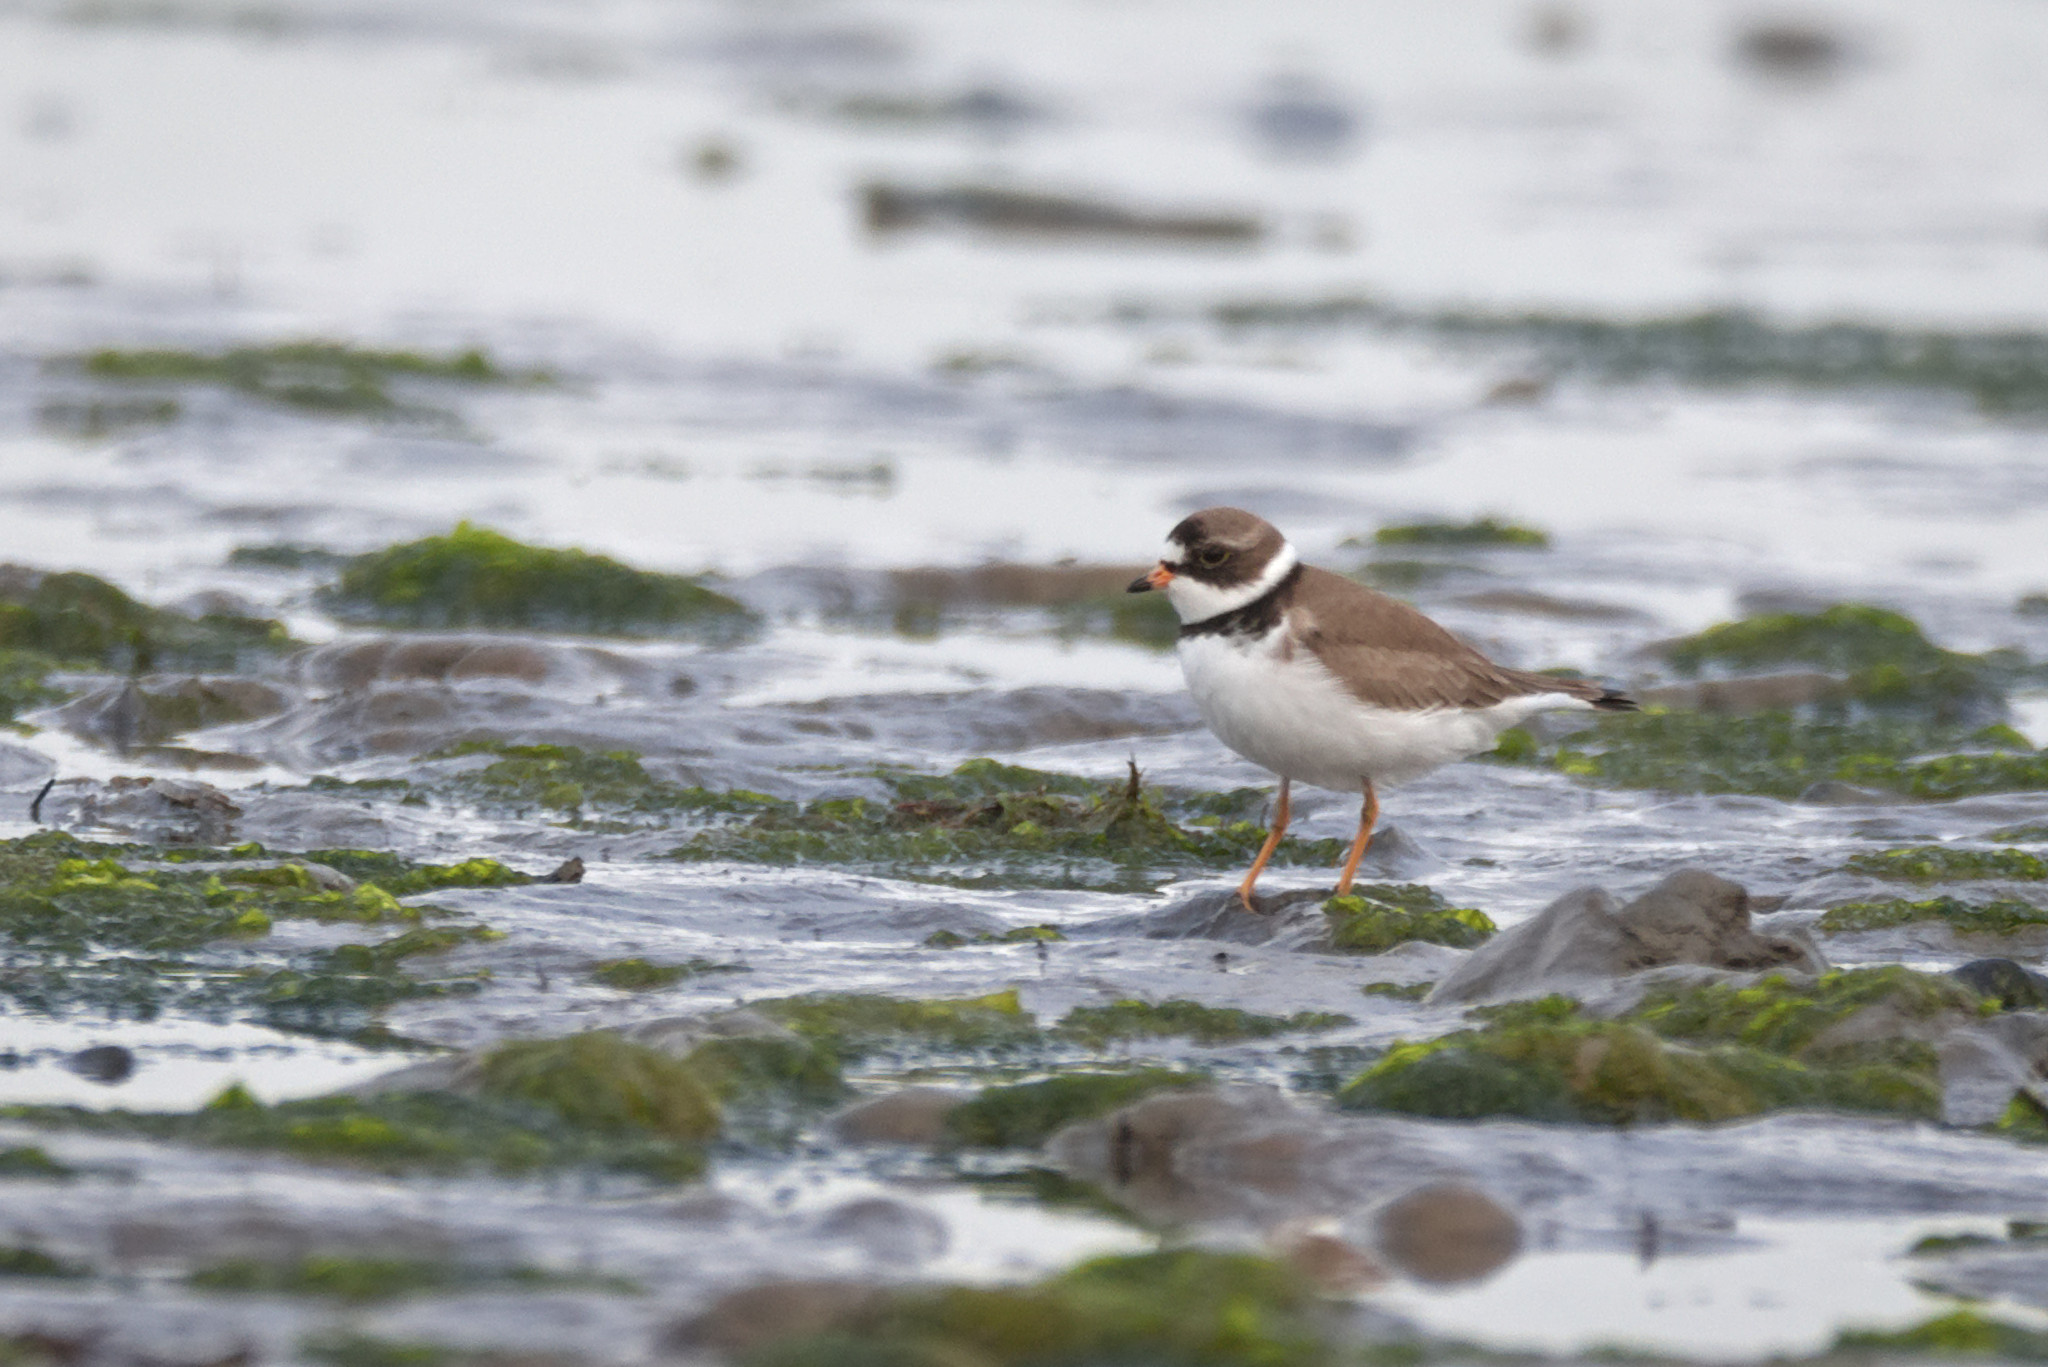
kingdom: Animalia
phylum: Chordata
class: Aves
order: Charadriiformes
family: Charadriidae
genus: Charadrius
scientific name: Charadrius semipalmatus
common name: Semipalmated plover
